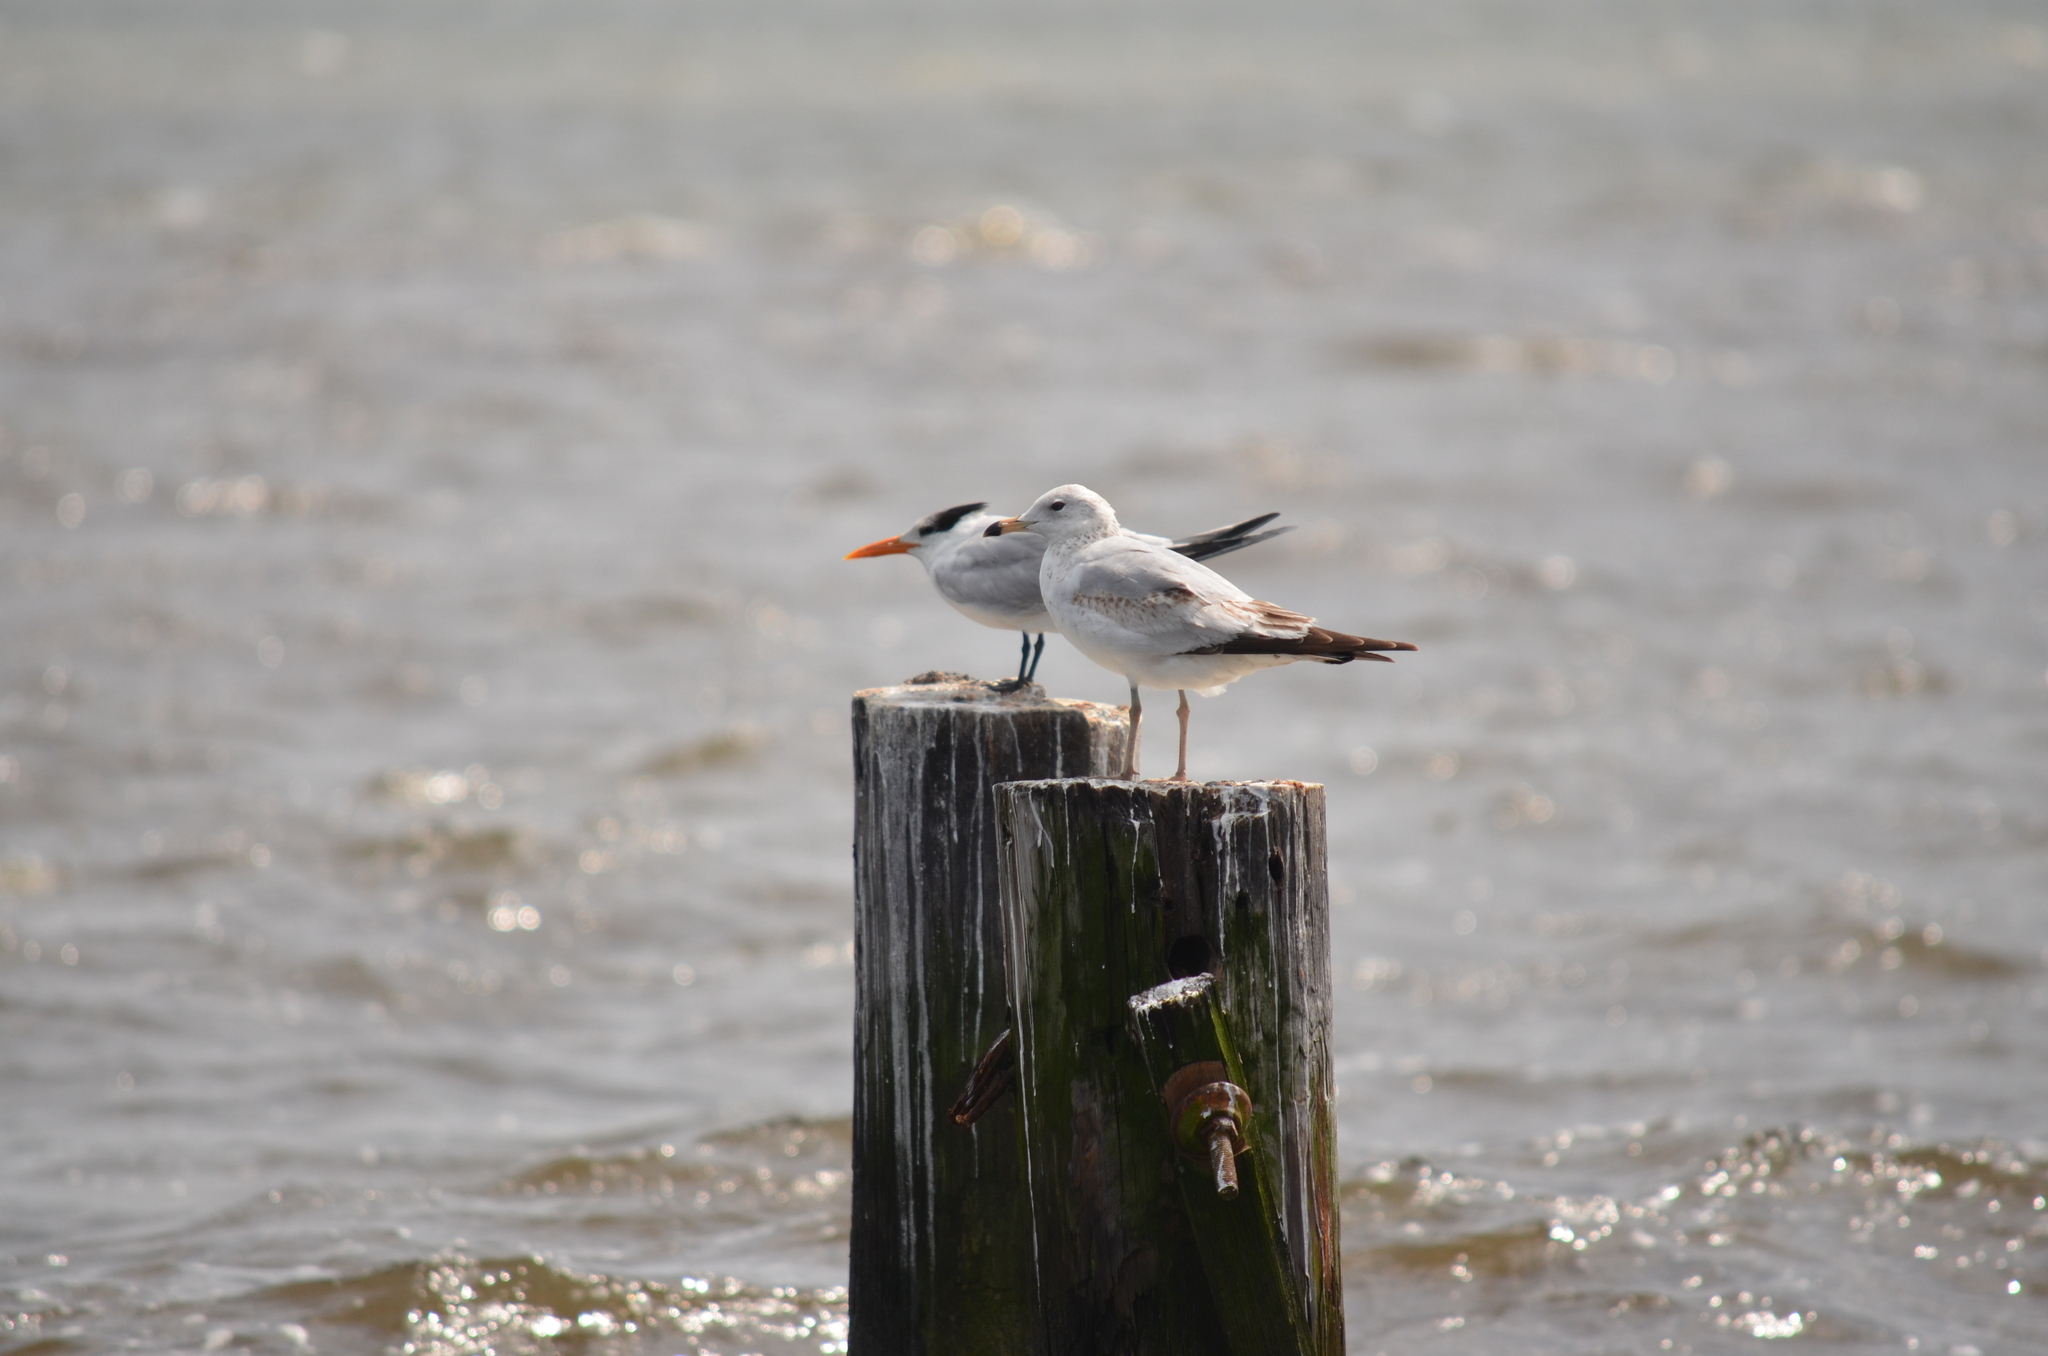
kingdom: Animalia
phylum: Chordata
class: Aves
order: Charadriiformes
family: Laridae
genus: Larus
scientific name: Larus delawarensis
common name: Ring-billed gull
